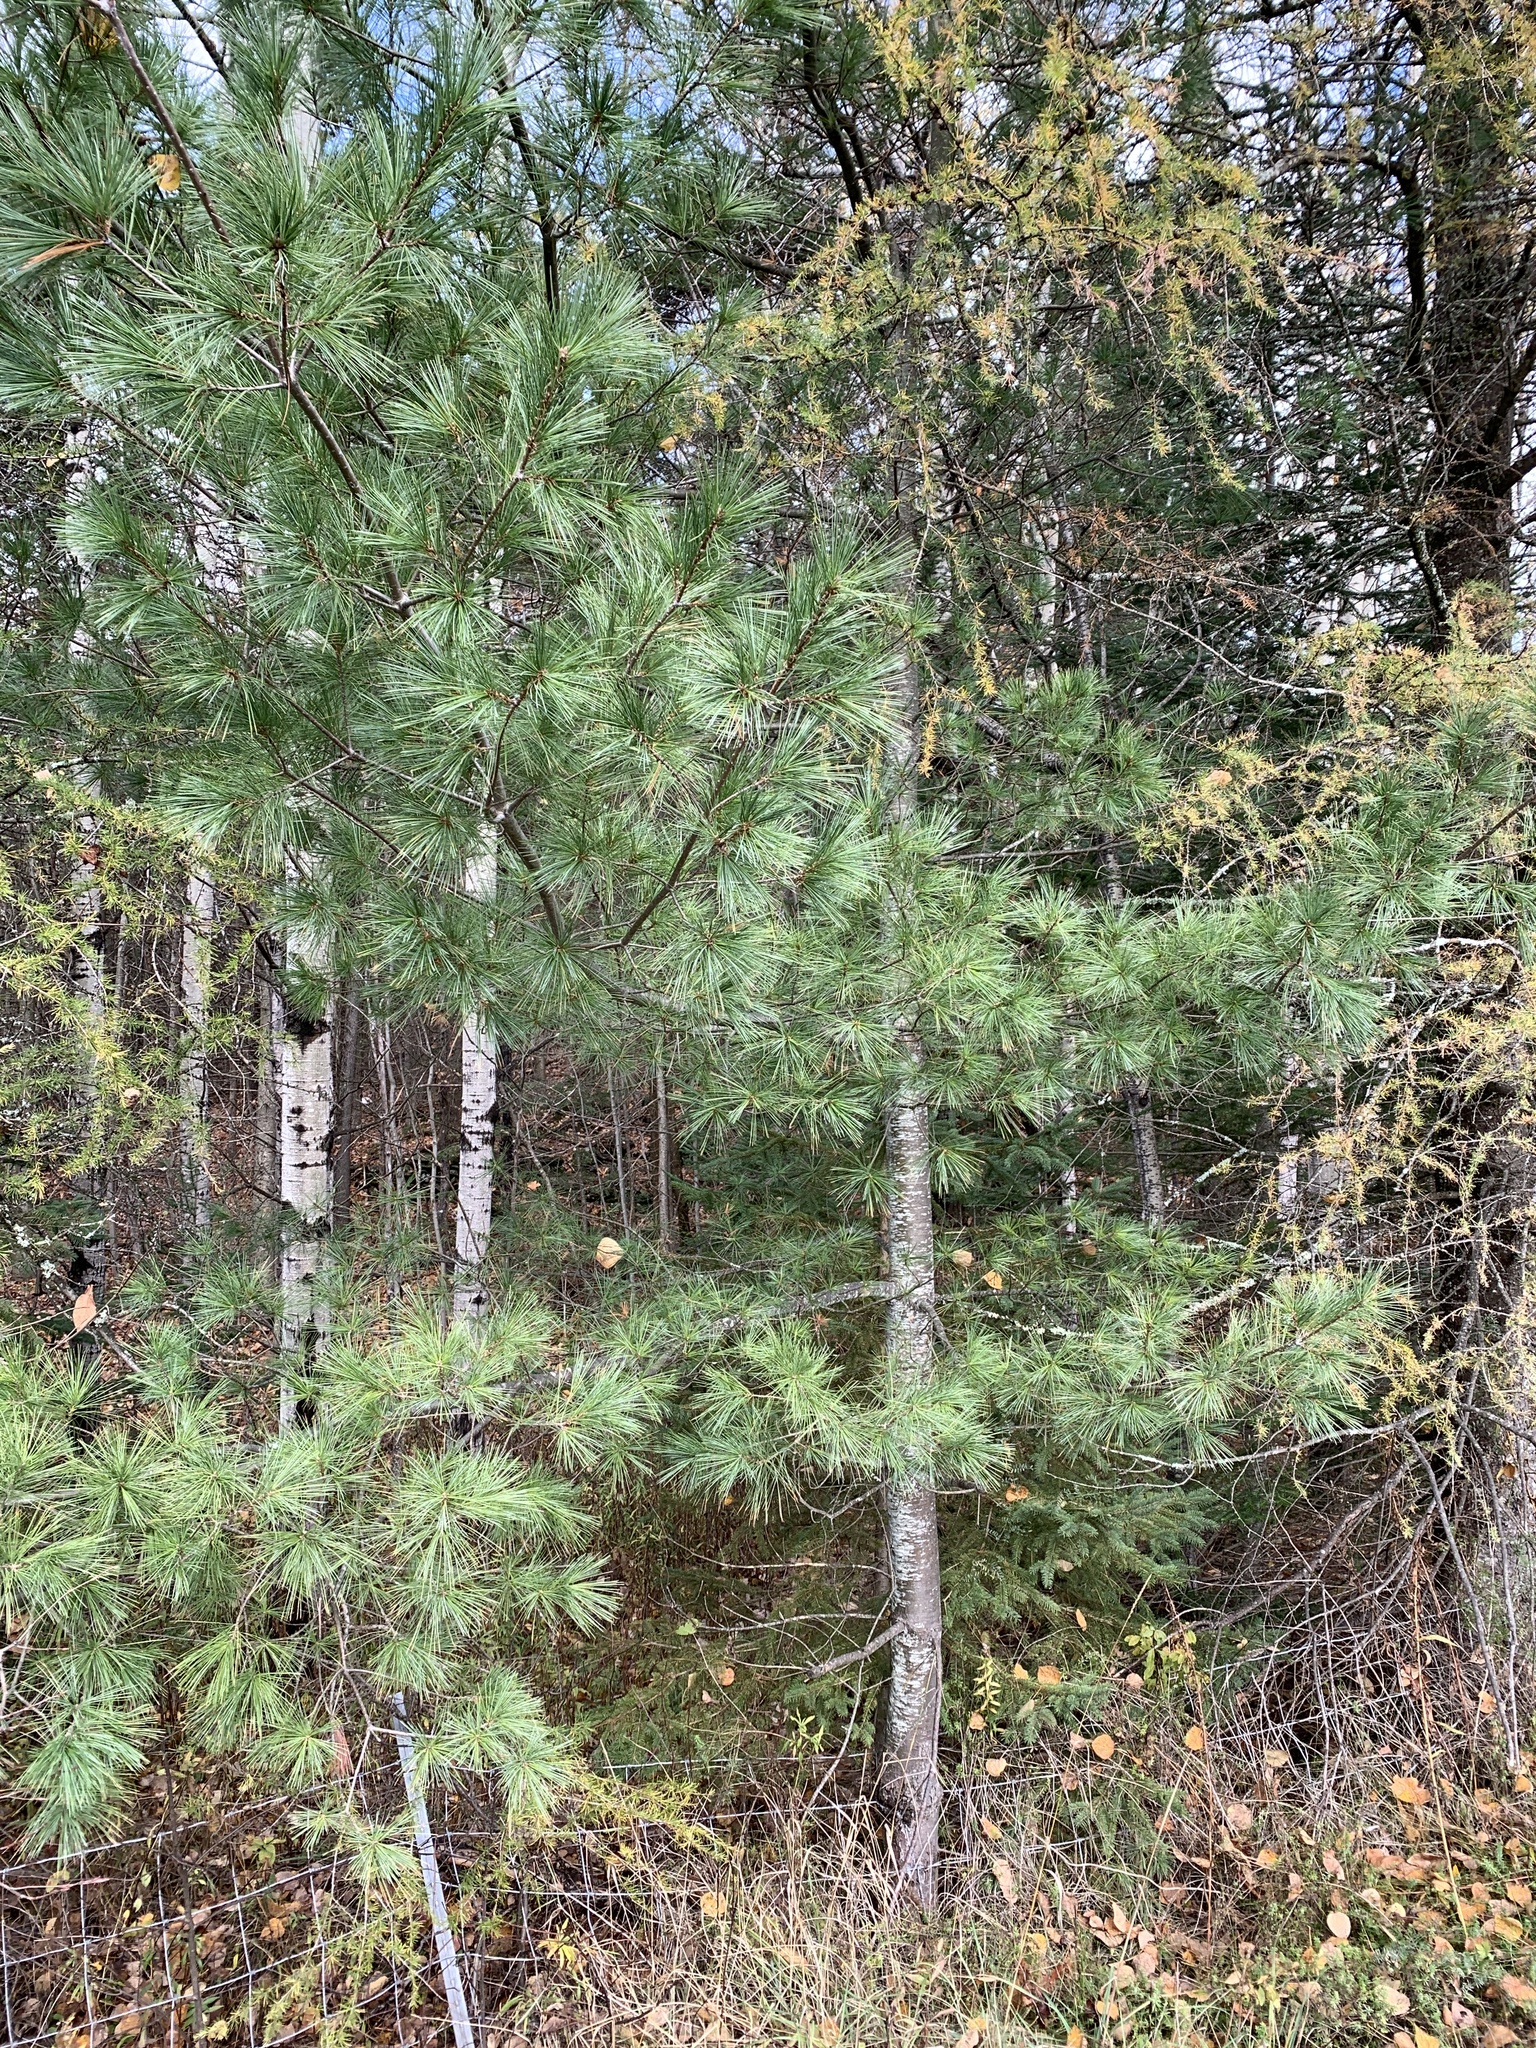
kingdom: Plantae
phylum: Tracheophyta
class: Pinopsida
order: Pinales
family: Pinaceae
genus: Pinus
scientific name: Pinus strobus
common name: Weymouth pine
